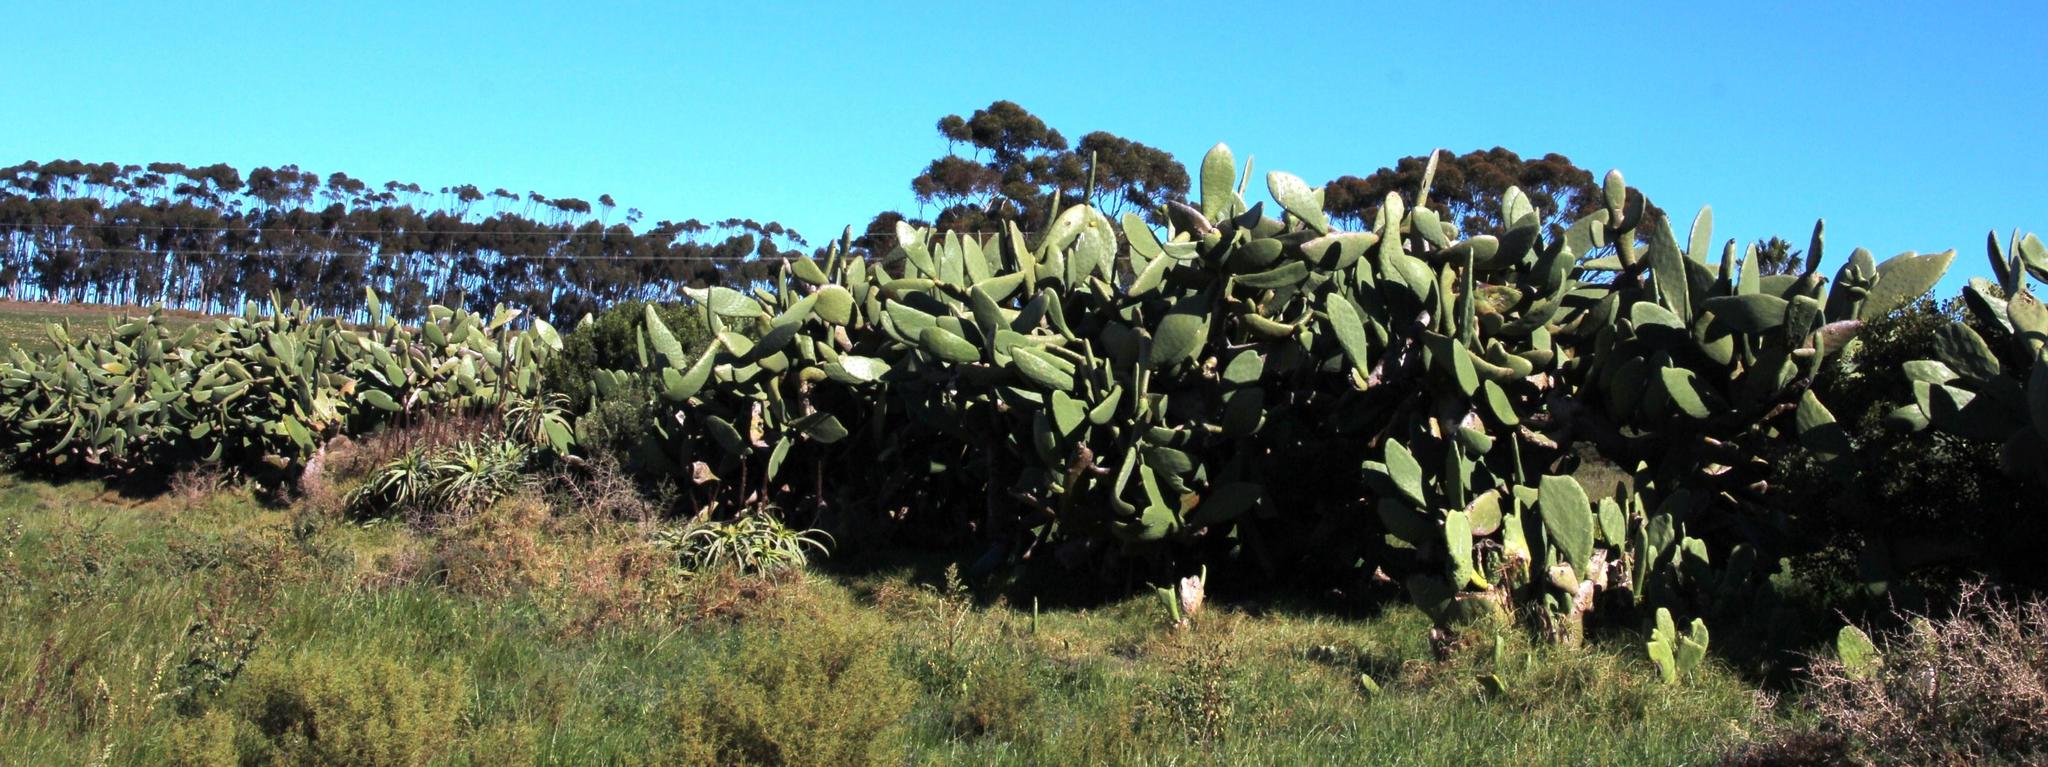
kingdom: Plantae
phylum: Tracheophyta
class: Magnoliopsida
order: Caryophyllales
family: Cactaceae
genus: Opuntia
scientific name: Opuntia ficus-indica
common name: Barbary fig
